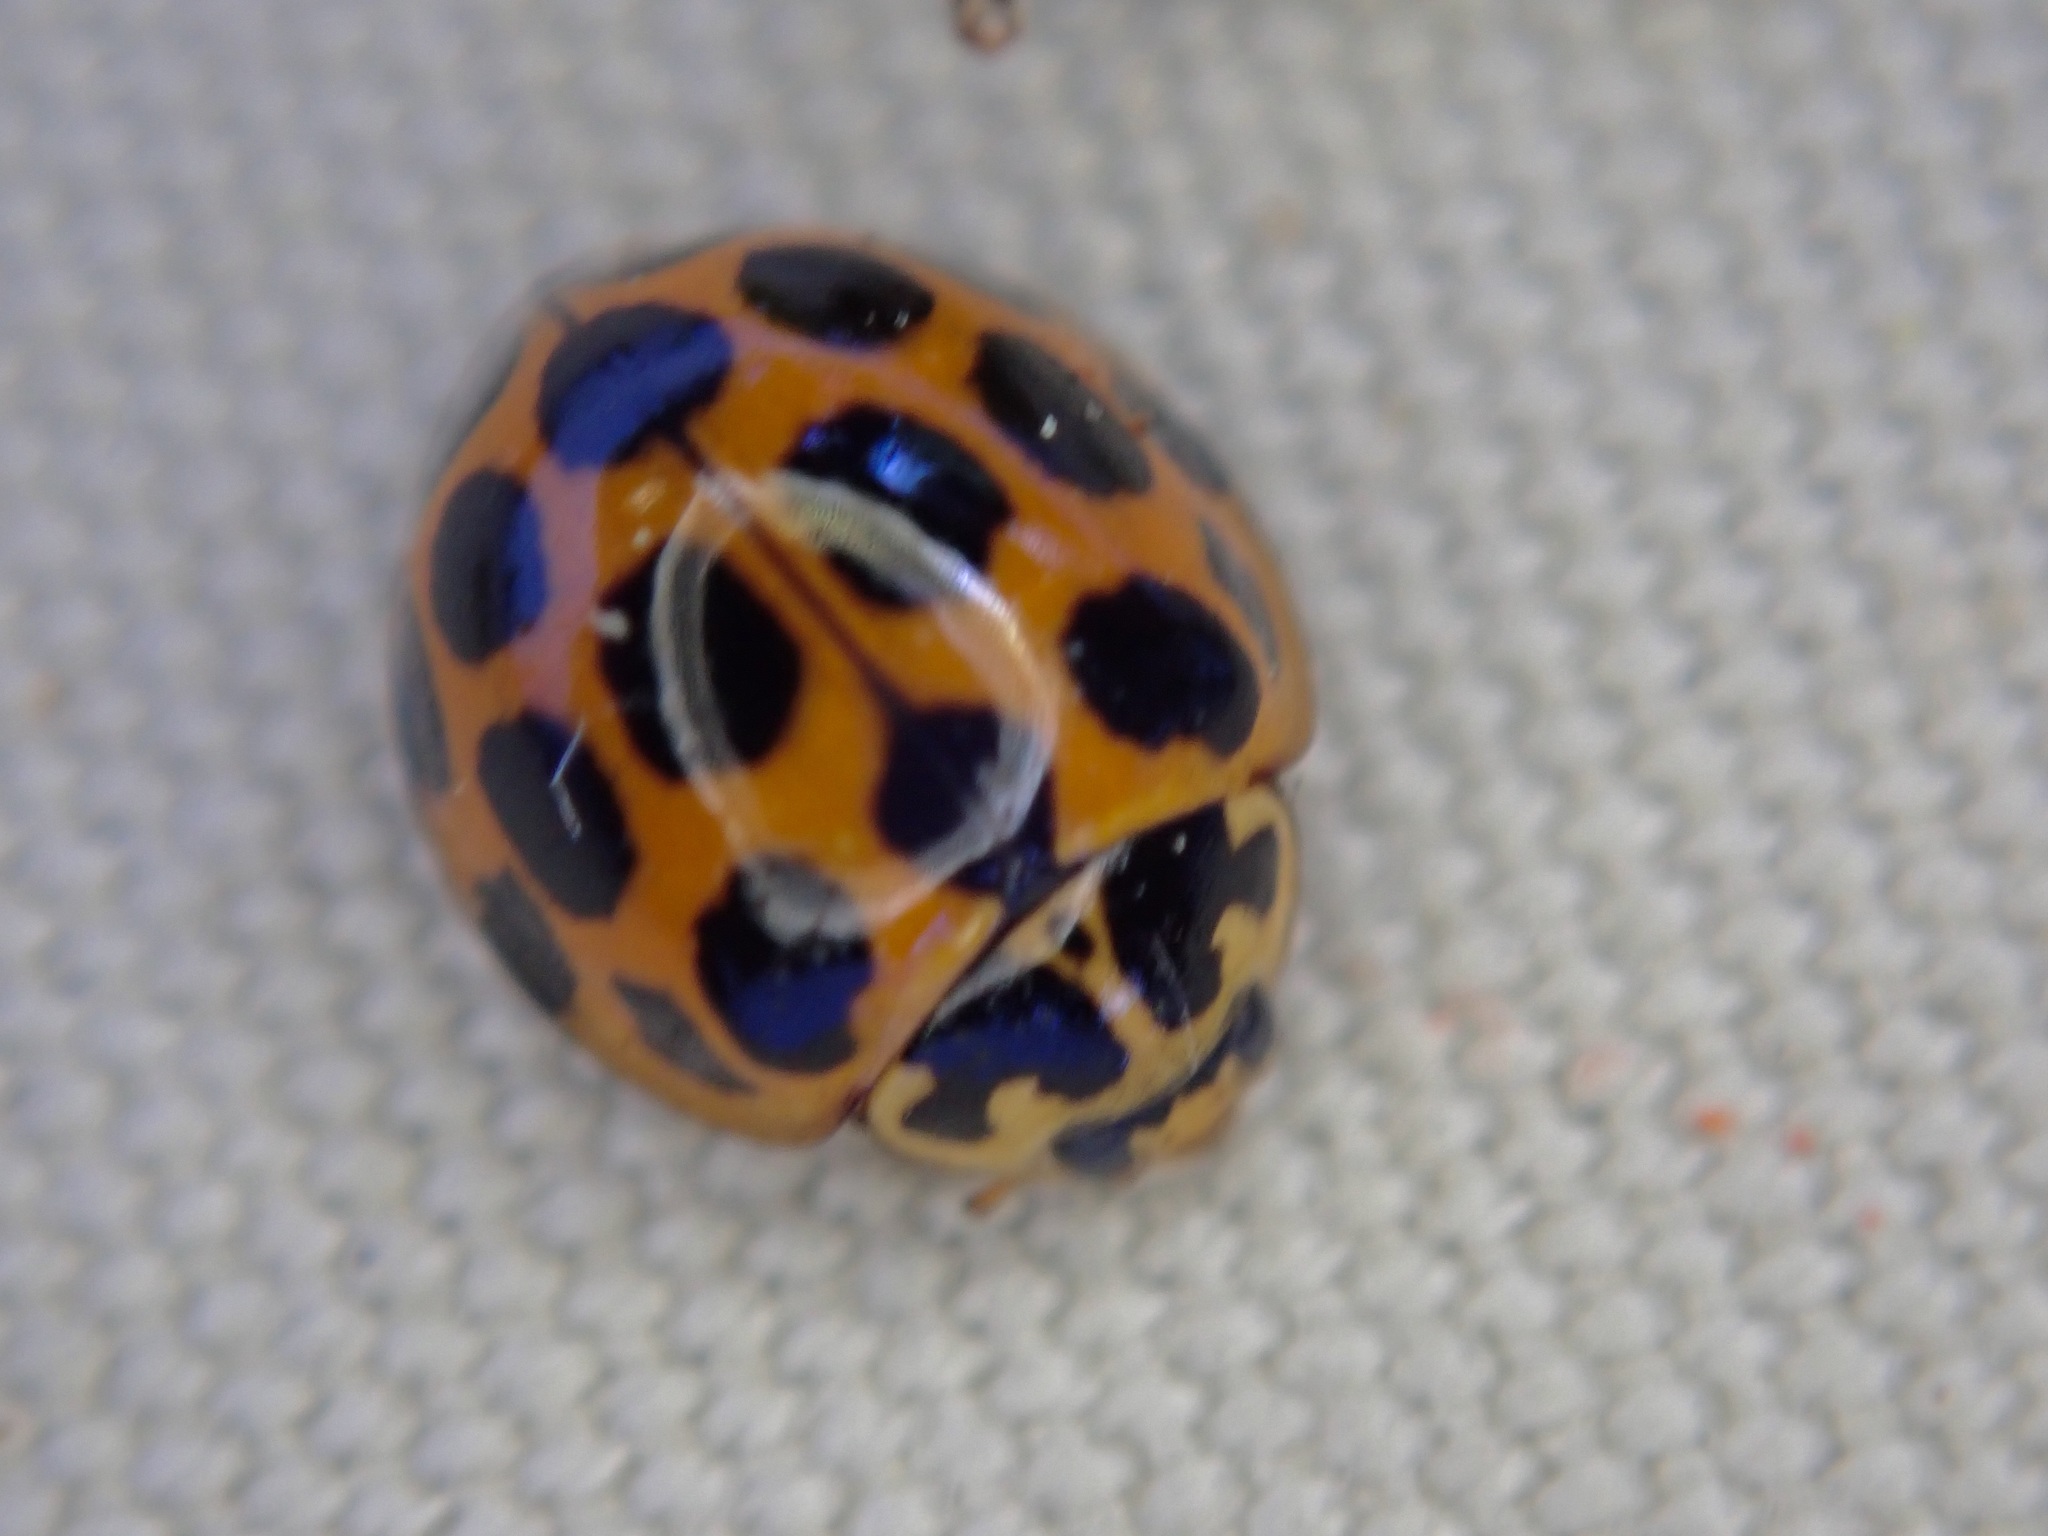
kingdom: Animalia
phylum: Arthropoda
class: Insecta
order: Coleoptera
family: Coccinellidae
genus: Harmonia
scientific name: Harmonia conformis
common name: Common spotted ladybird beetle
